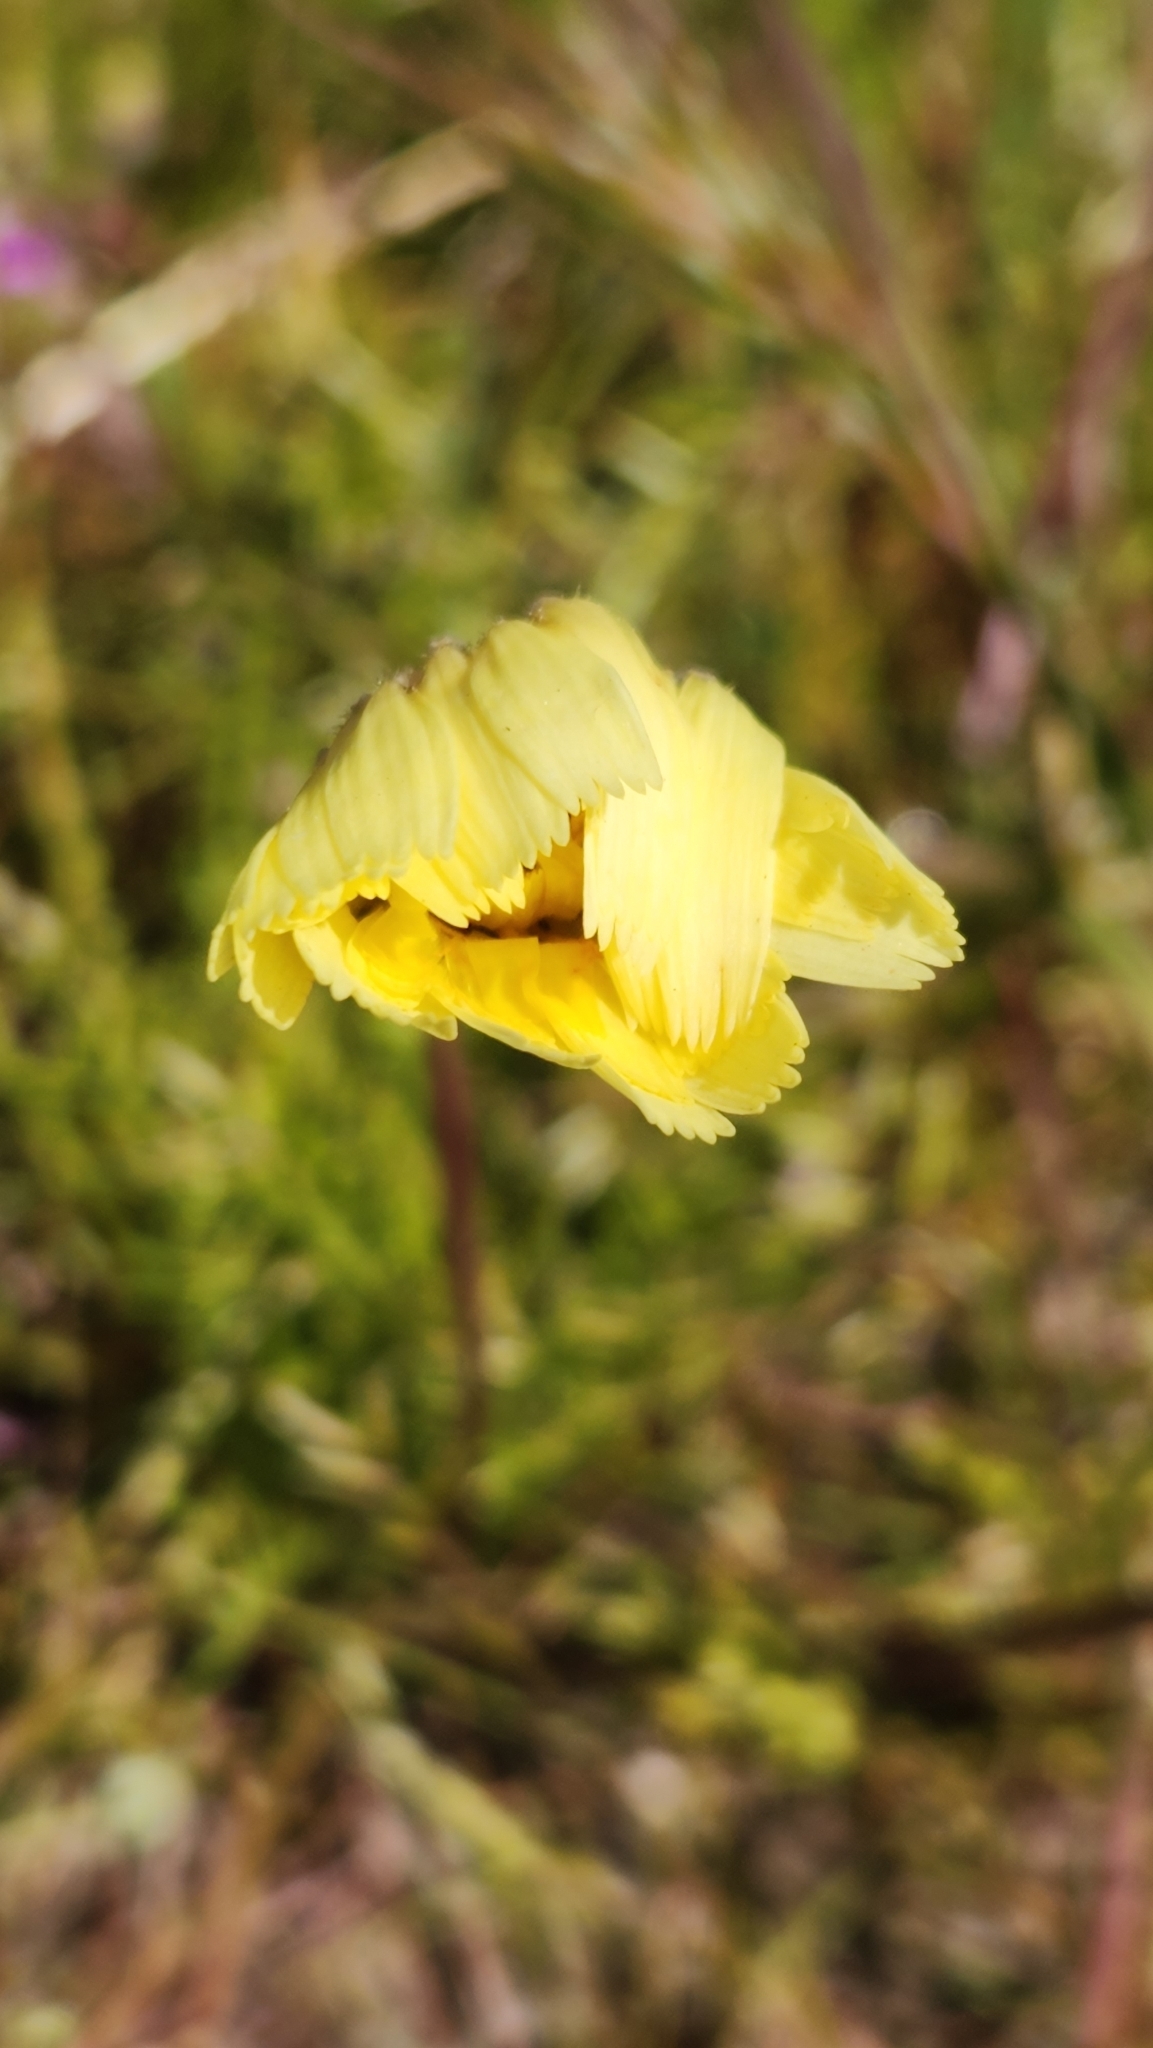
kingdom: Plantae
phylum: Tracheophyta
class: Magnoliopsida
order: Asterales
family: Asteraceae
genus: Malacothrix
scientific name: Malacothrix glabrata
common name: Smooth desert-dandelion
